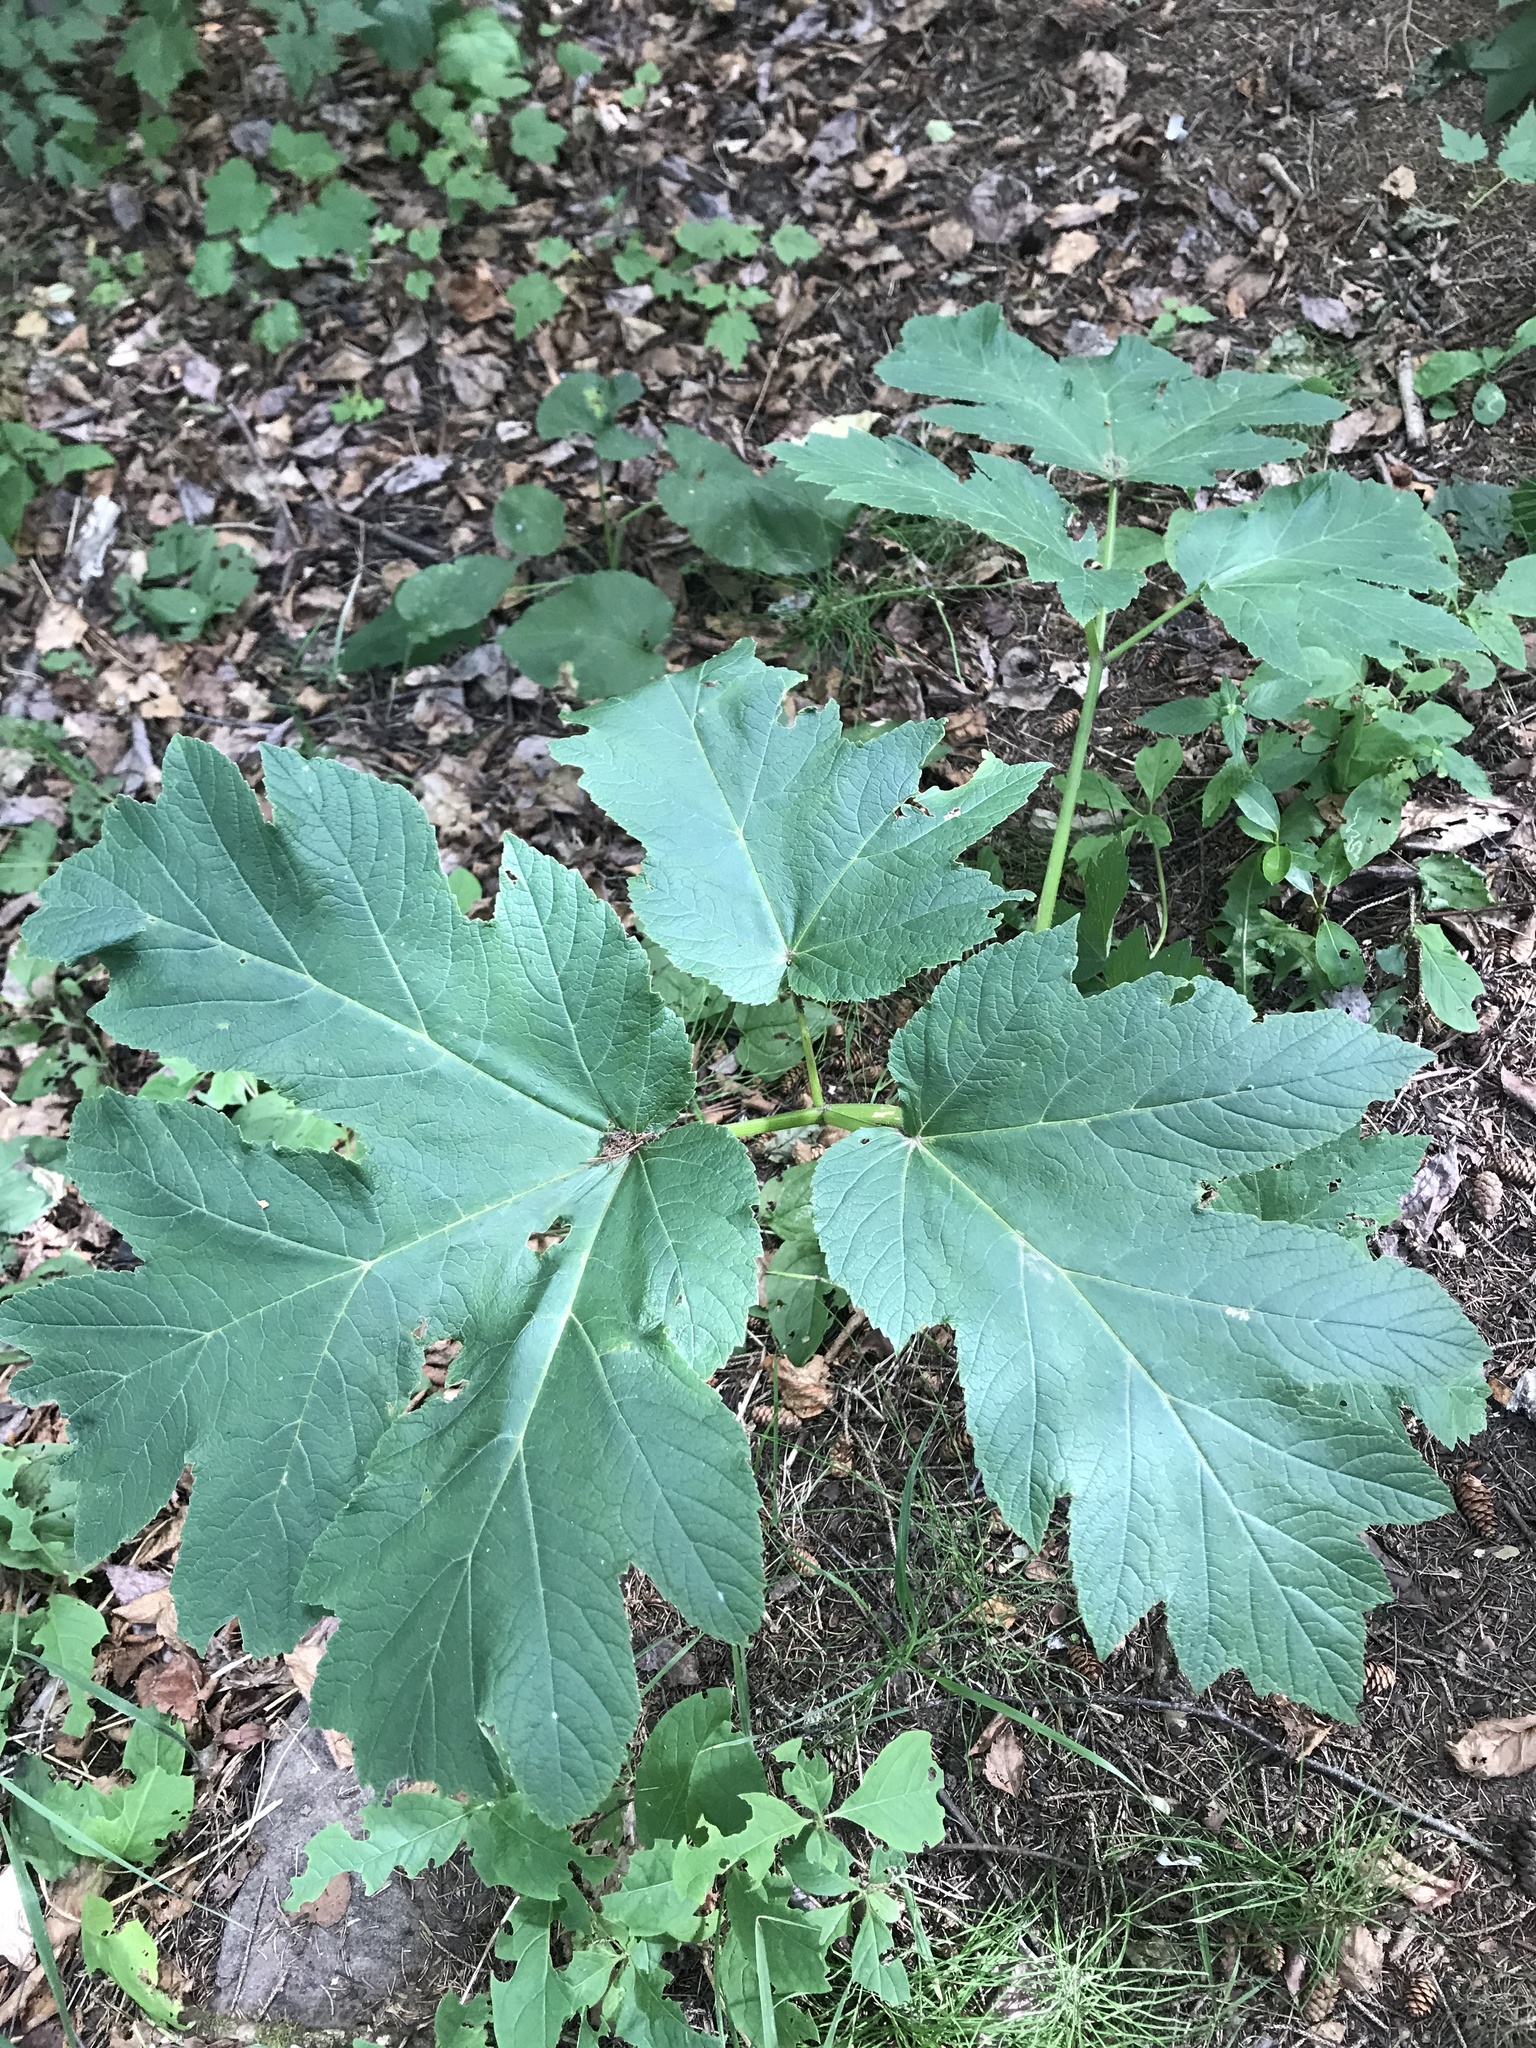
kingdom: Plantae
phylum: Tracheophyta
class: Magnoliopsida
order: Apiales
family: Apiaceae
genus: Heracleum
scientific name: Heracleum maximum
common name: American cow parsnip
